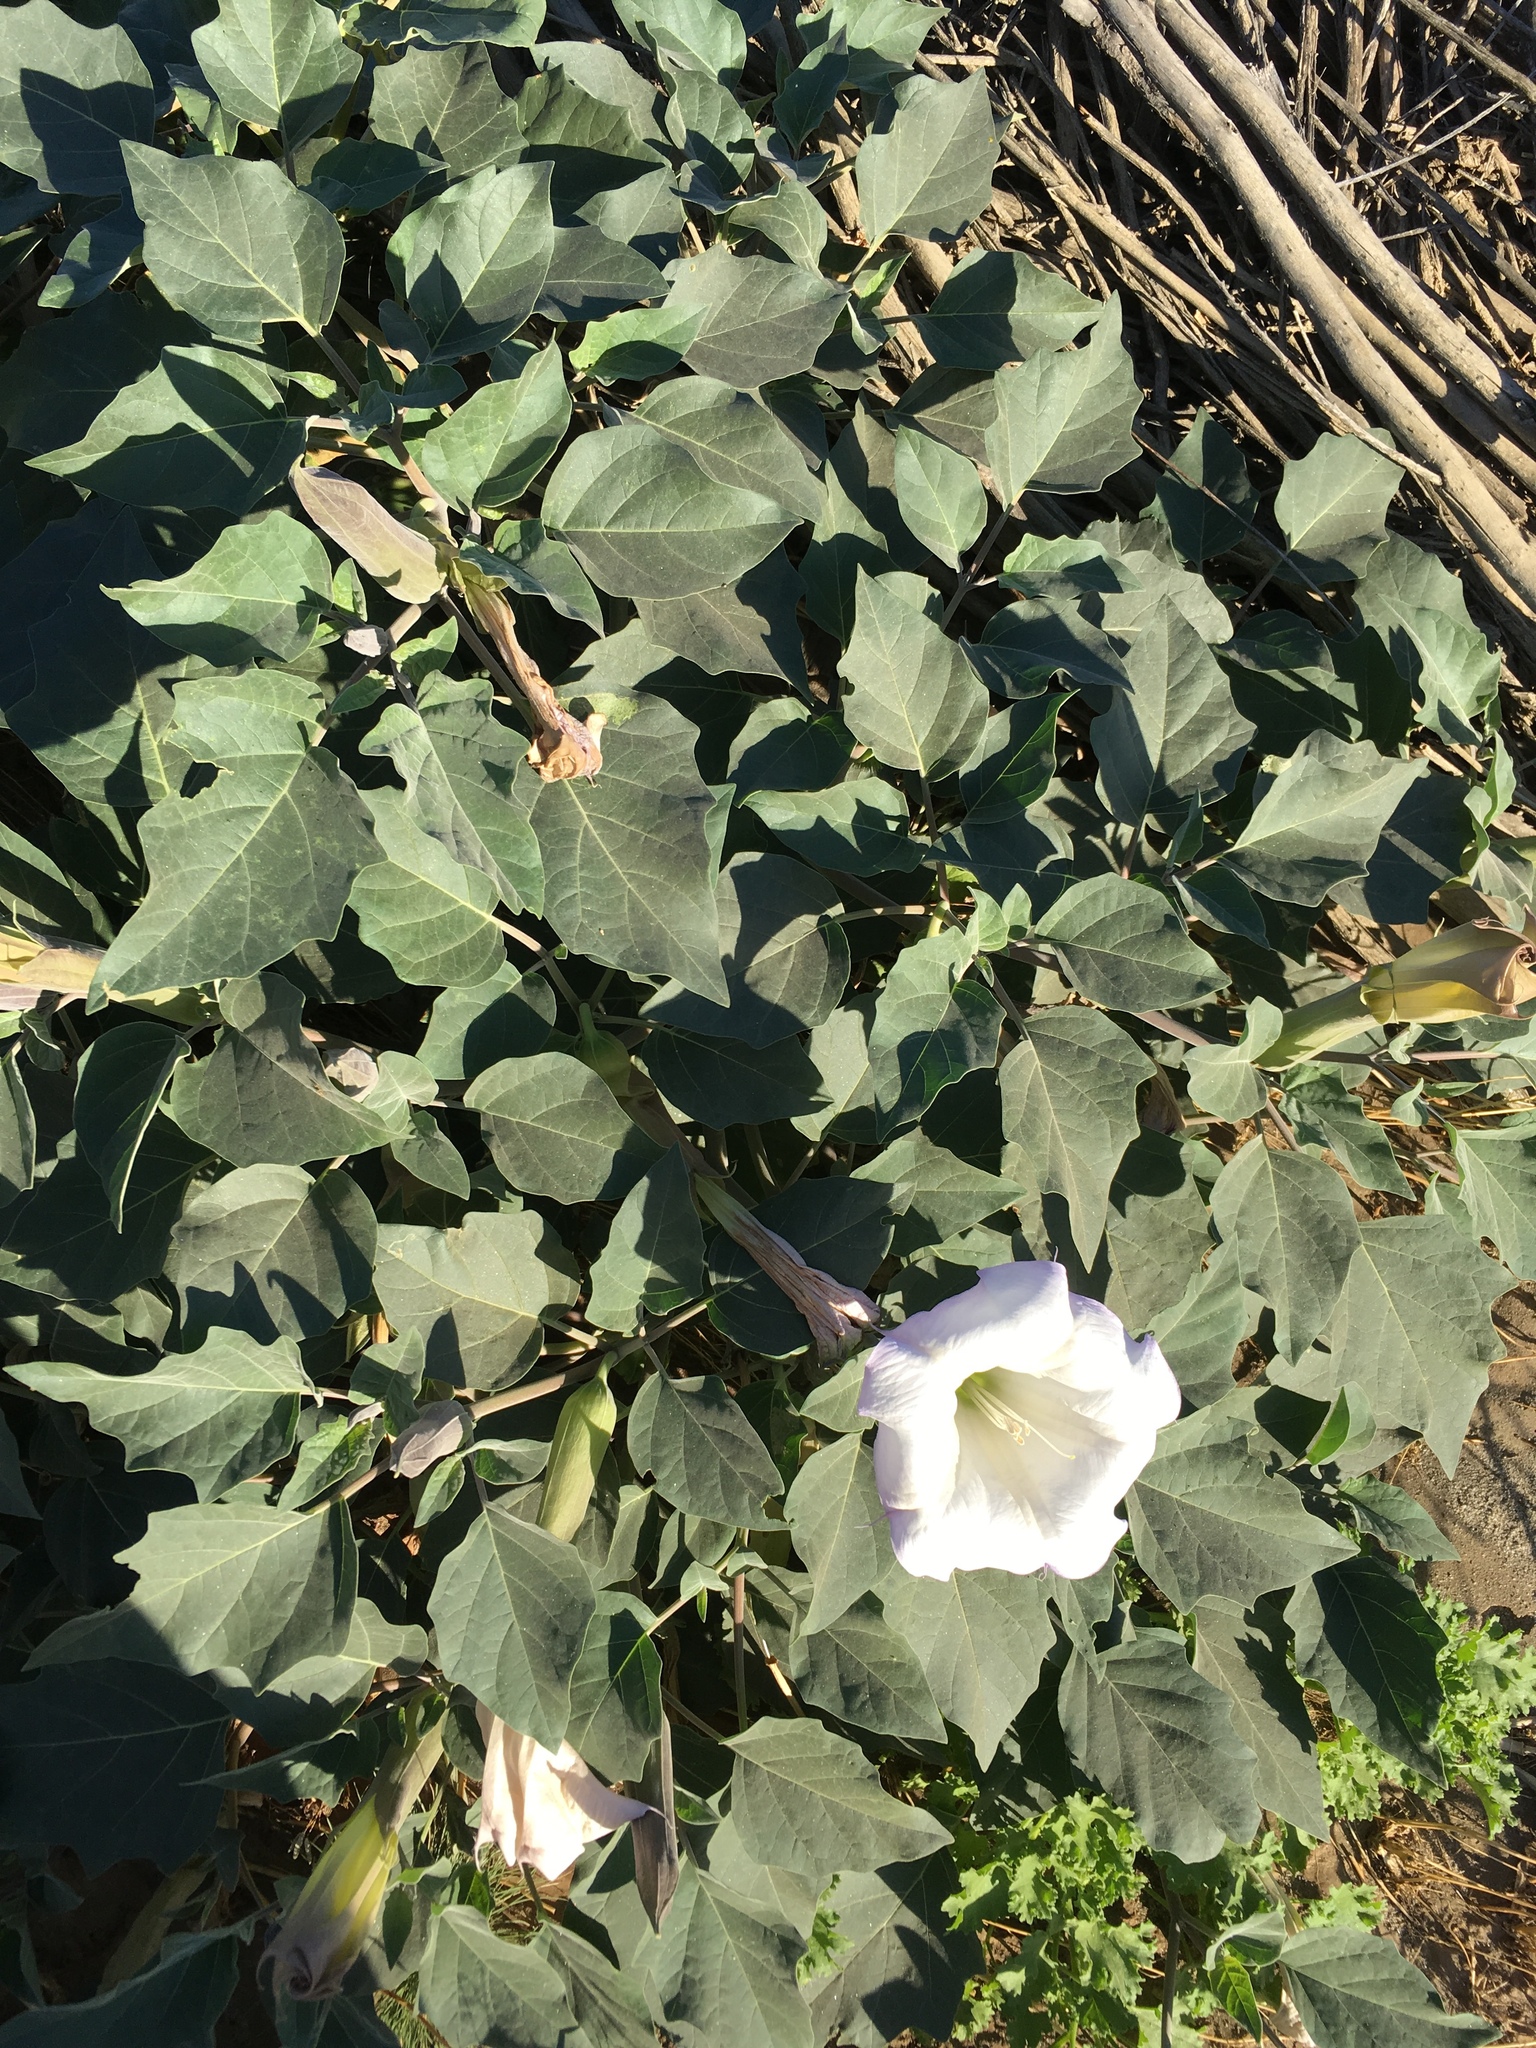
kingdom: Plantae
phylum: Tracheophyta
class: Magnoliopsida
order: Solanales
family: Solanaceae
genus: Datura
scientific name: Datura wrightii
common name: Sacred thorn-apple
